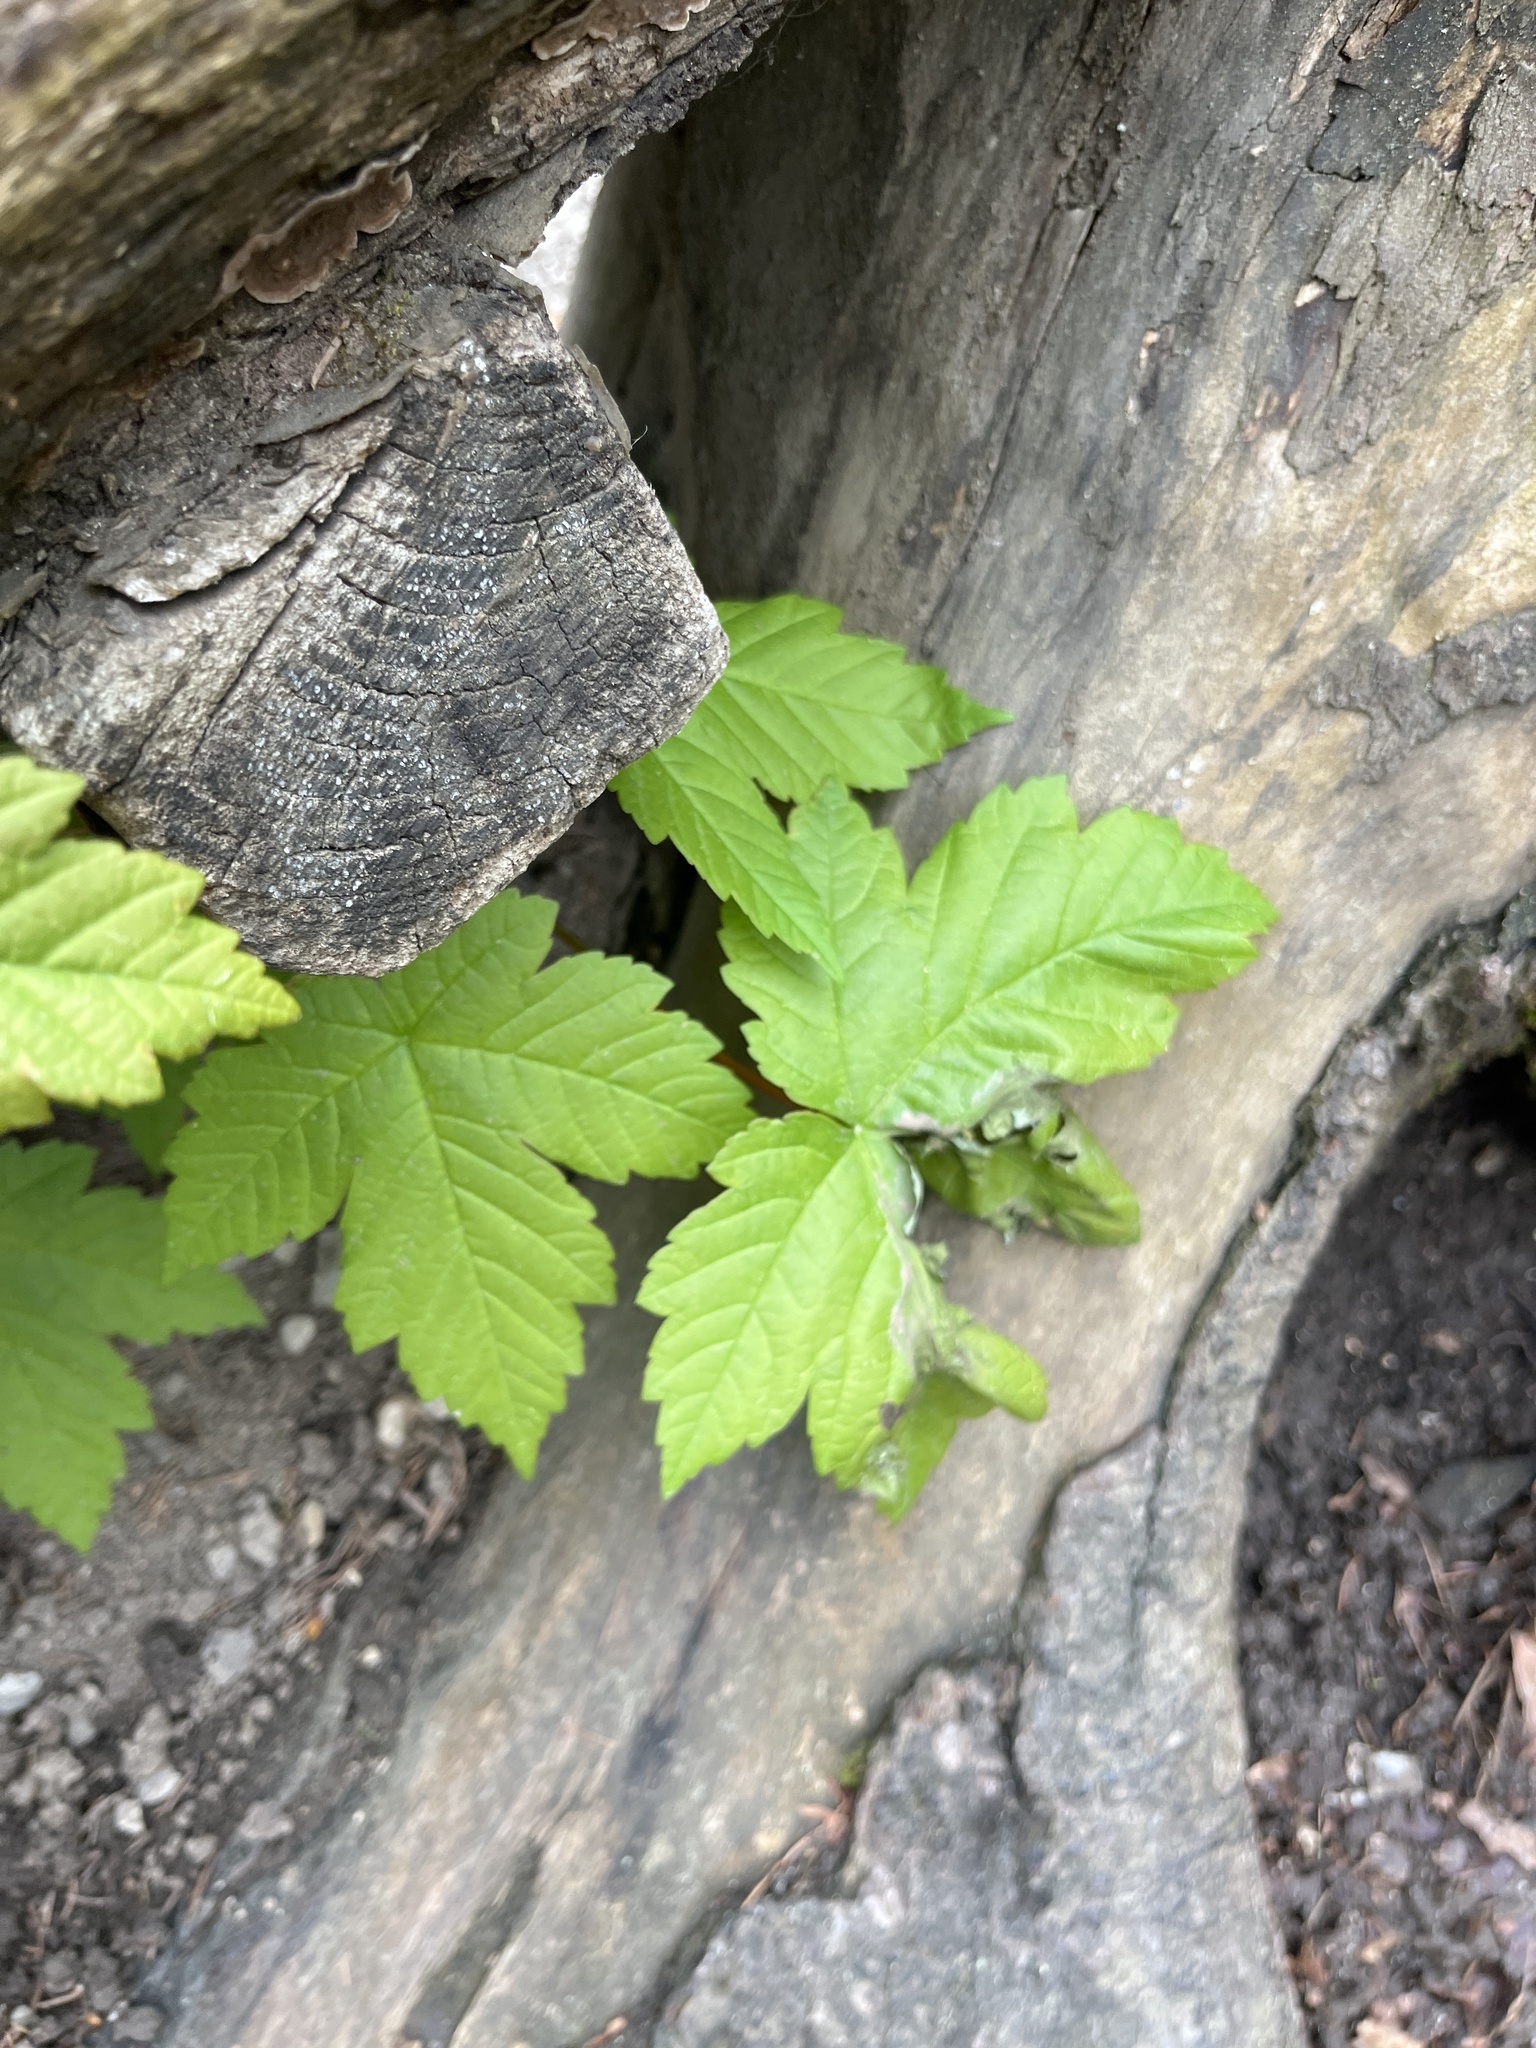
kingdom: Plantae
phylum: Tracheophyta
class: Magnoliopsida
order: Sapindales
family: Sapindaceae
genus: Acer
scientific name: Acer pseudoplatanus
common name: Sycamore
